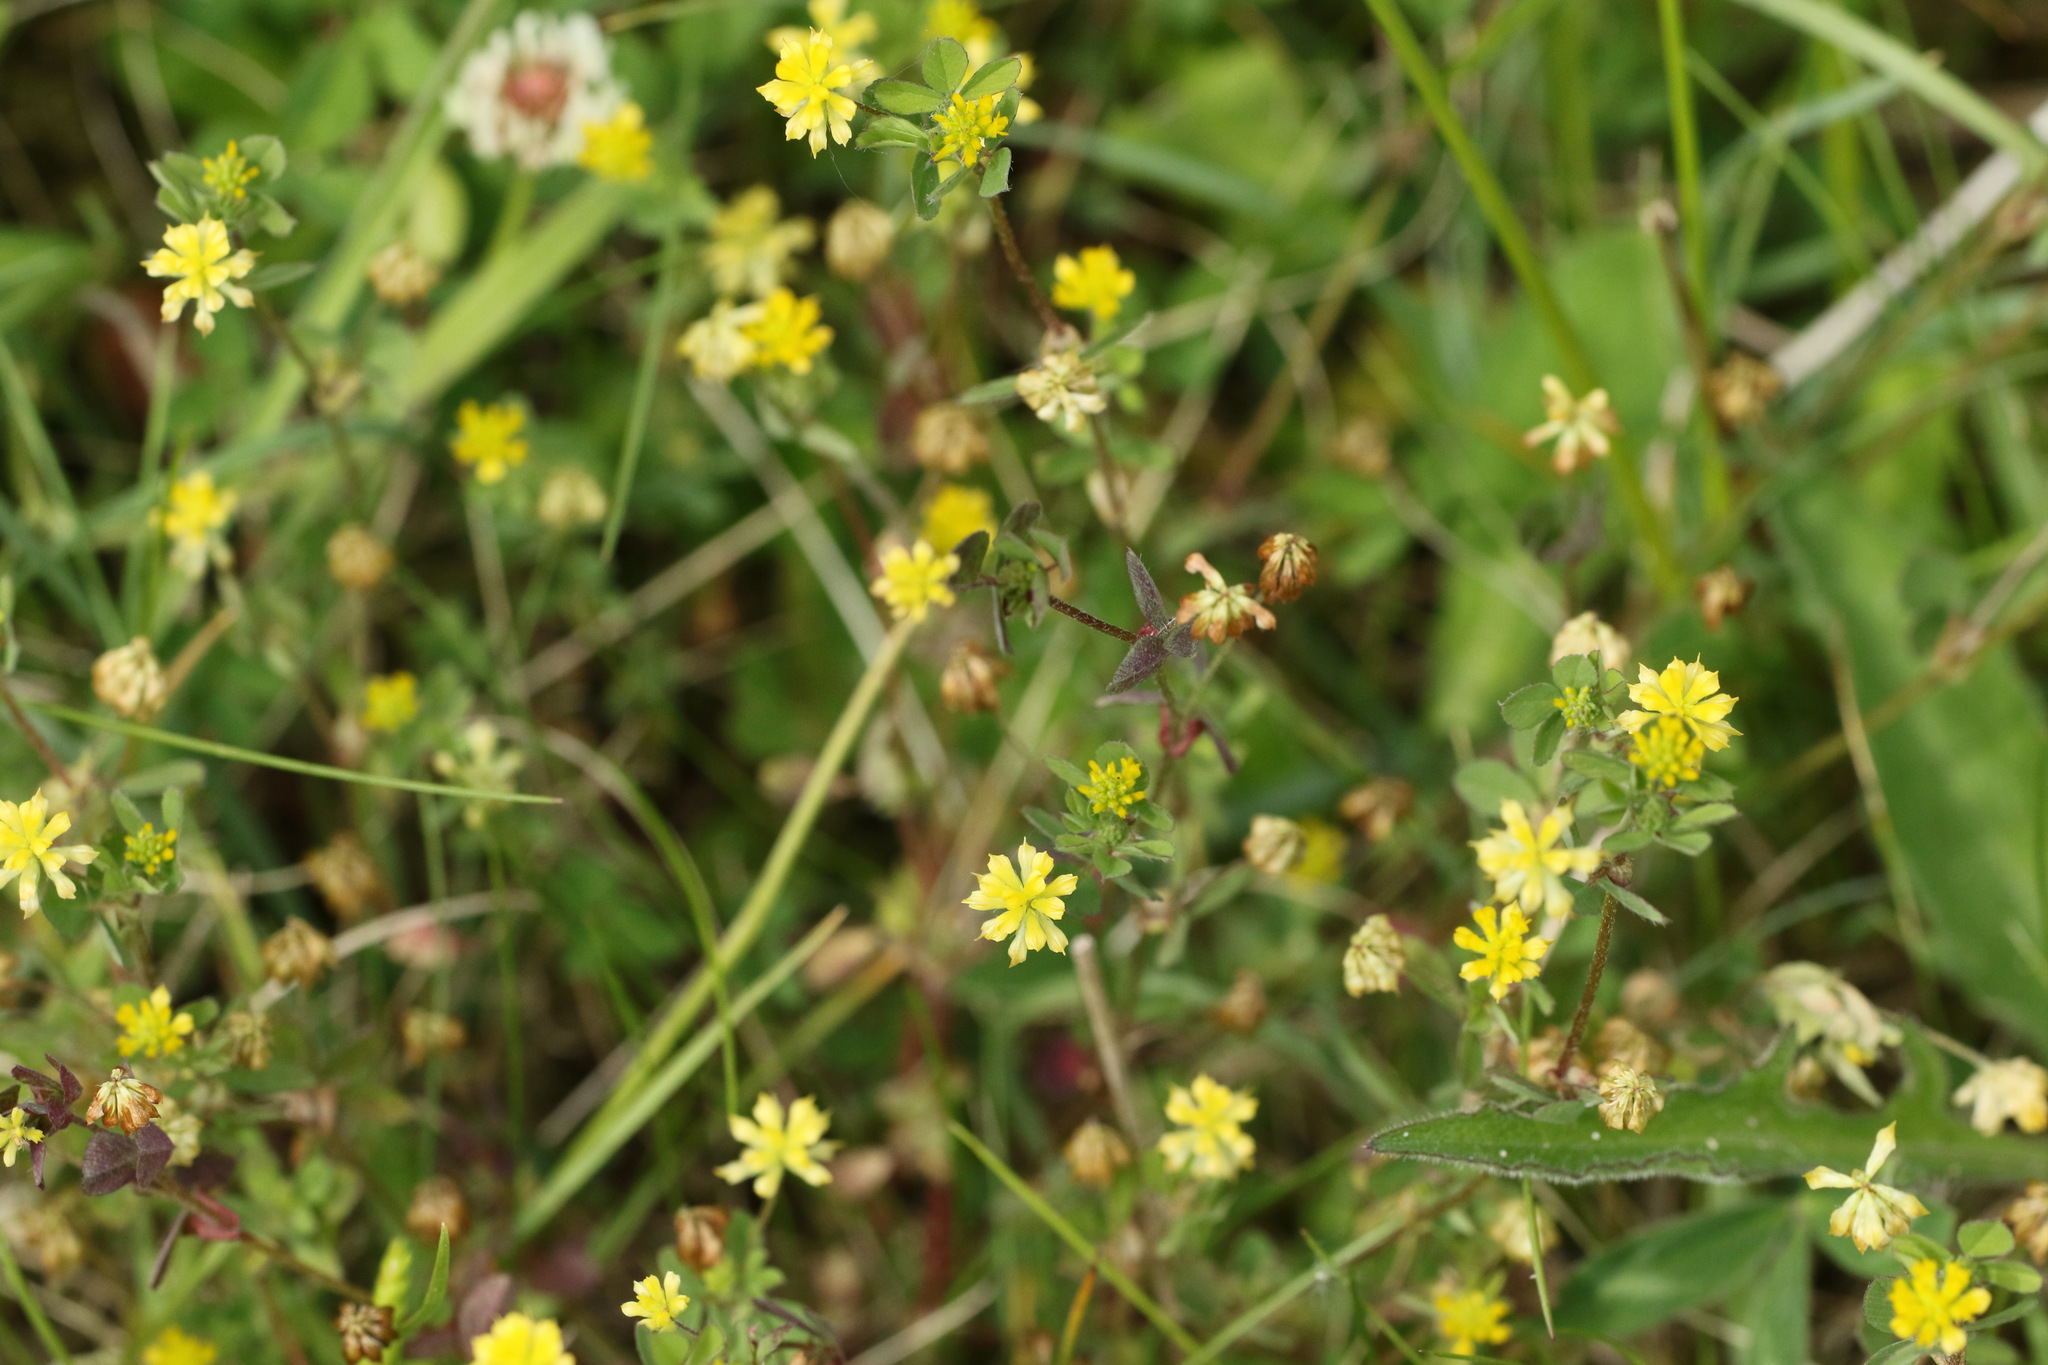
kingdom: Plantae
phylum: Tracheophyta
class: Magnoliopsida
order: Fabales
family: Fabaceae
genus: Trifolium
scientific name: Trifolium dubium
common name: Suckling clover
